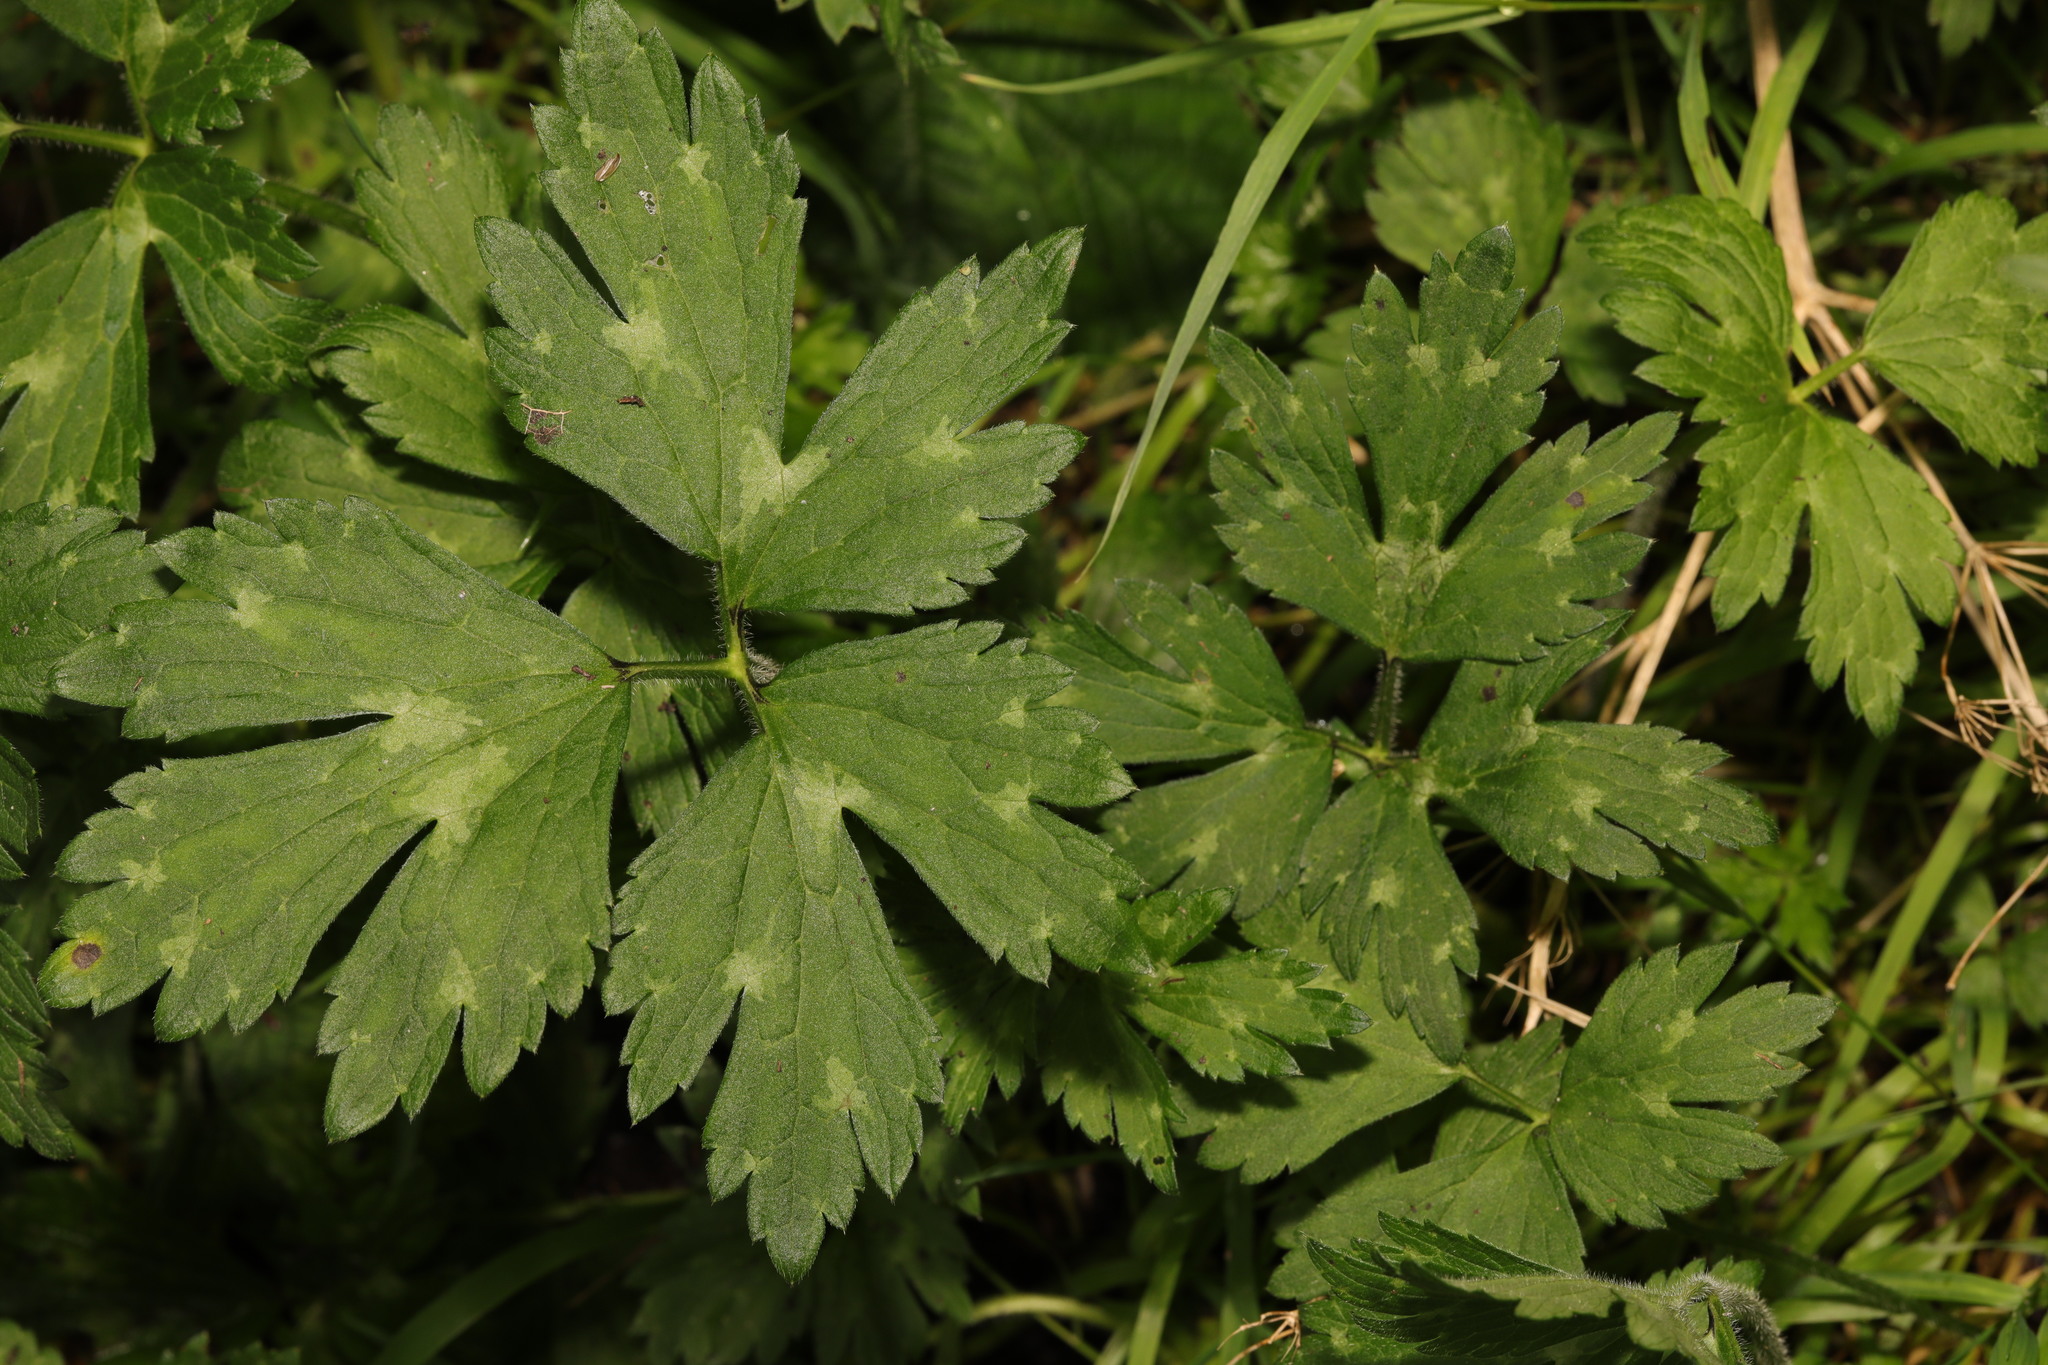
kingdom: Plantae
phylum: Tracheophyta
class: Magnoliopsida
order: Ranunculales
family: Ranunculaceae
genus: Ranunculus
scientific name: Ranunculus repens
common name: Creeping buttercup
